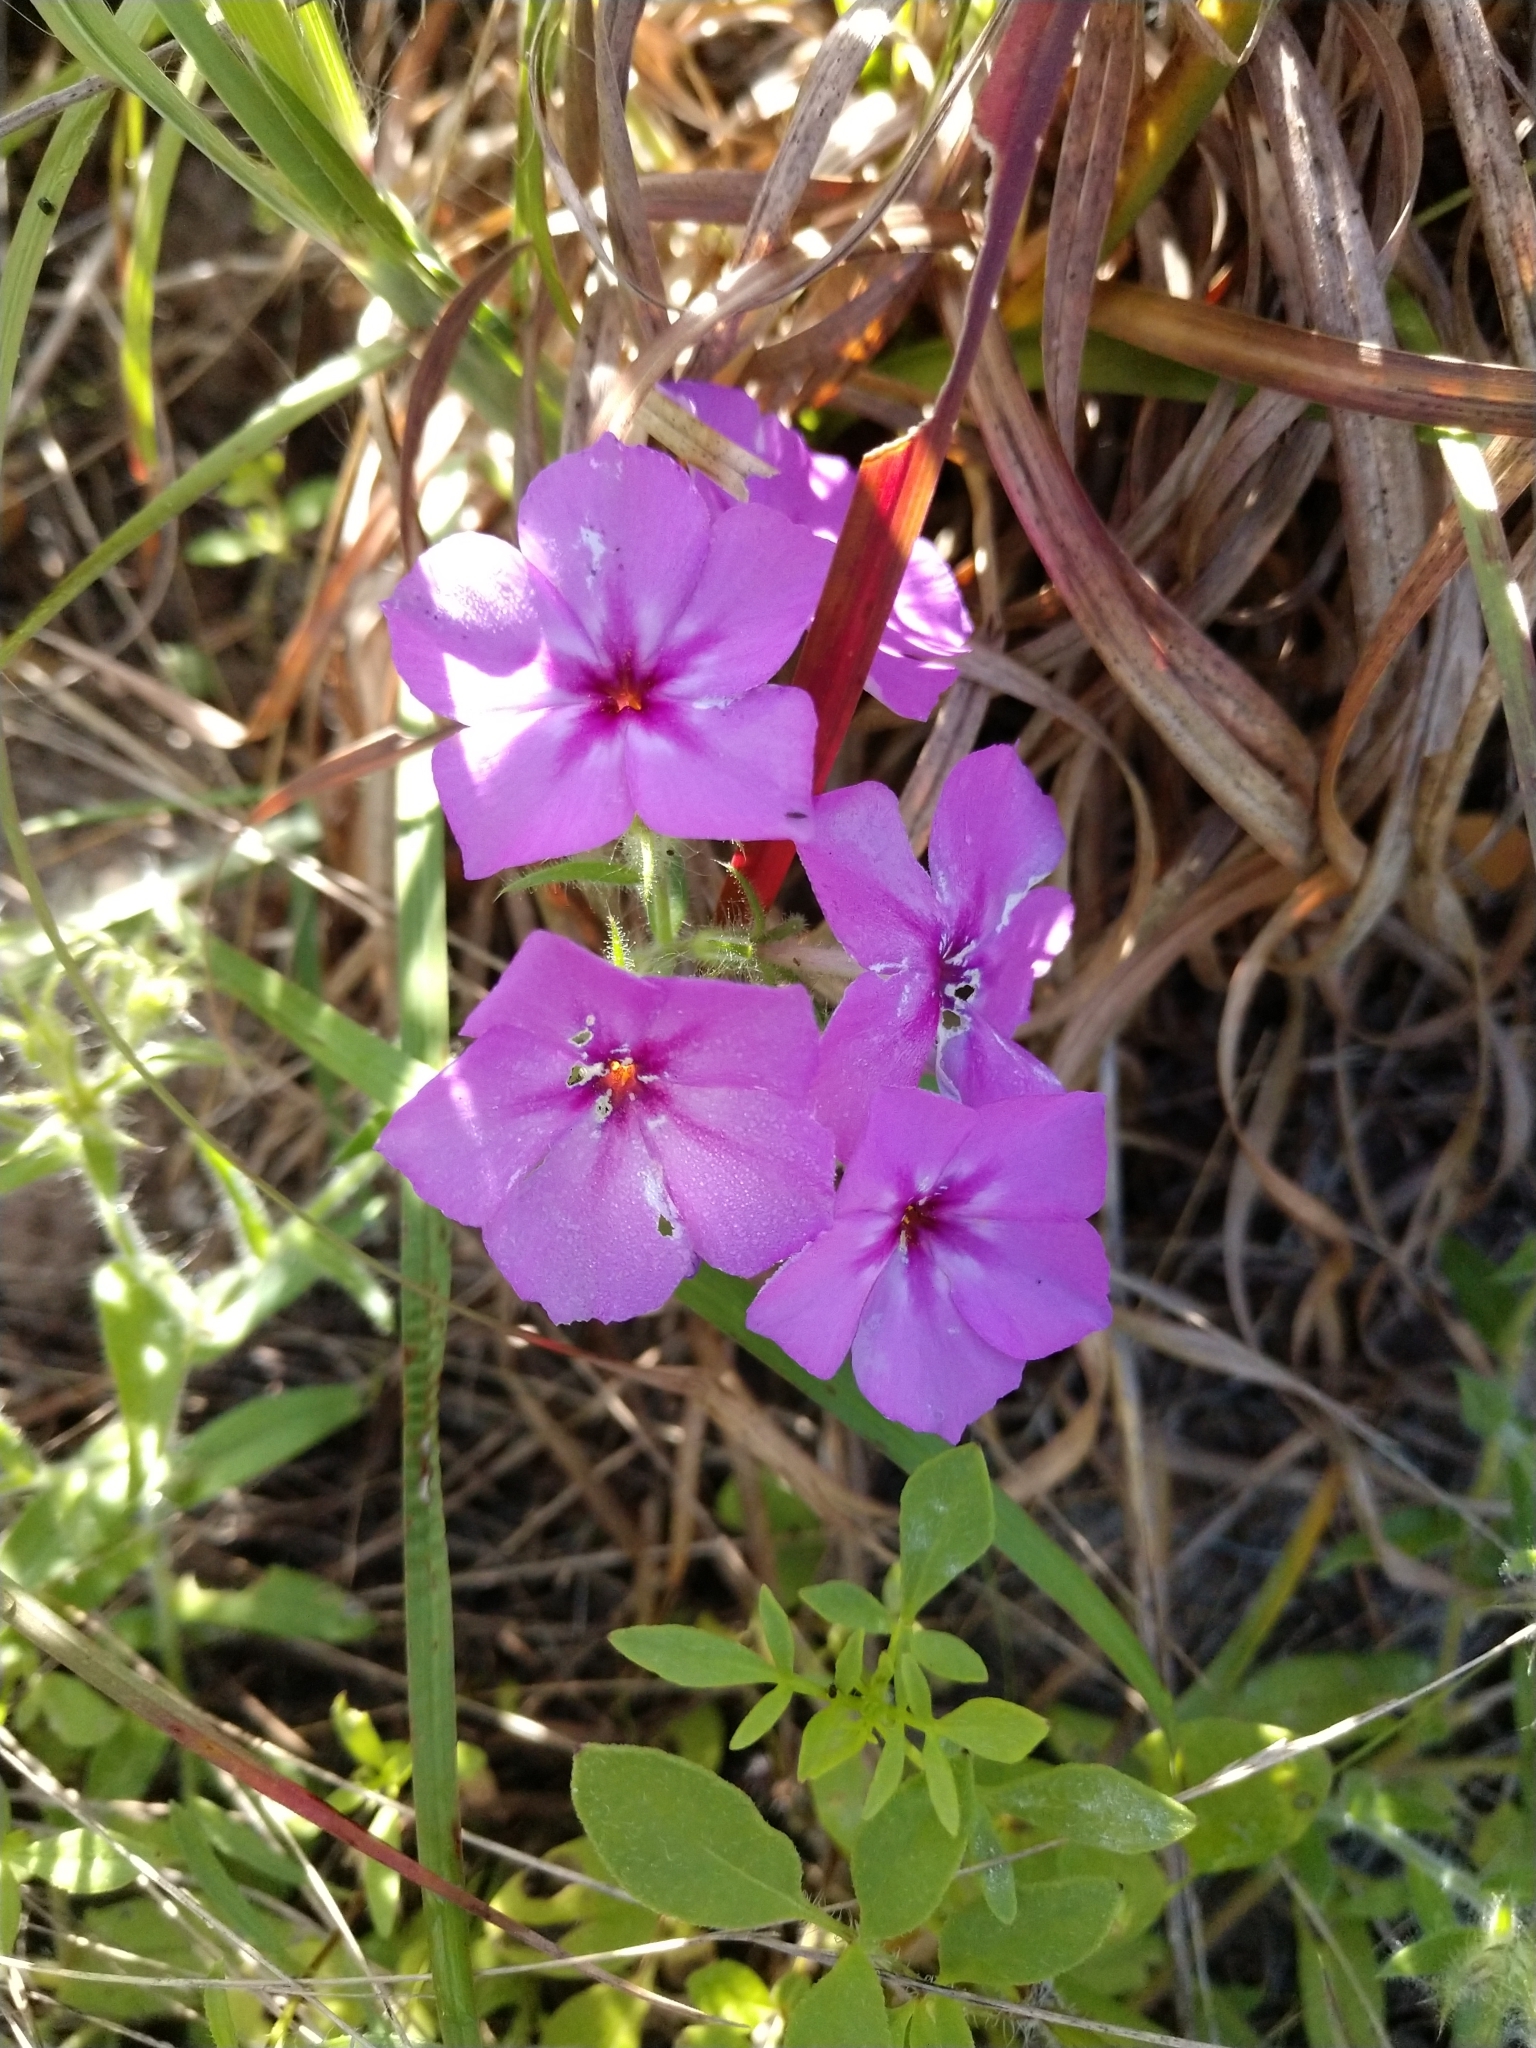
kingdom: Plantae
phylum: Tracheophyta
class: Magnoliopsida
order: Ericales
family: Polemoniaceae
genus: Phlox
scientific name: Phlox drummondii
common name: Drummond's phlox
